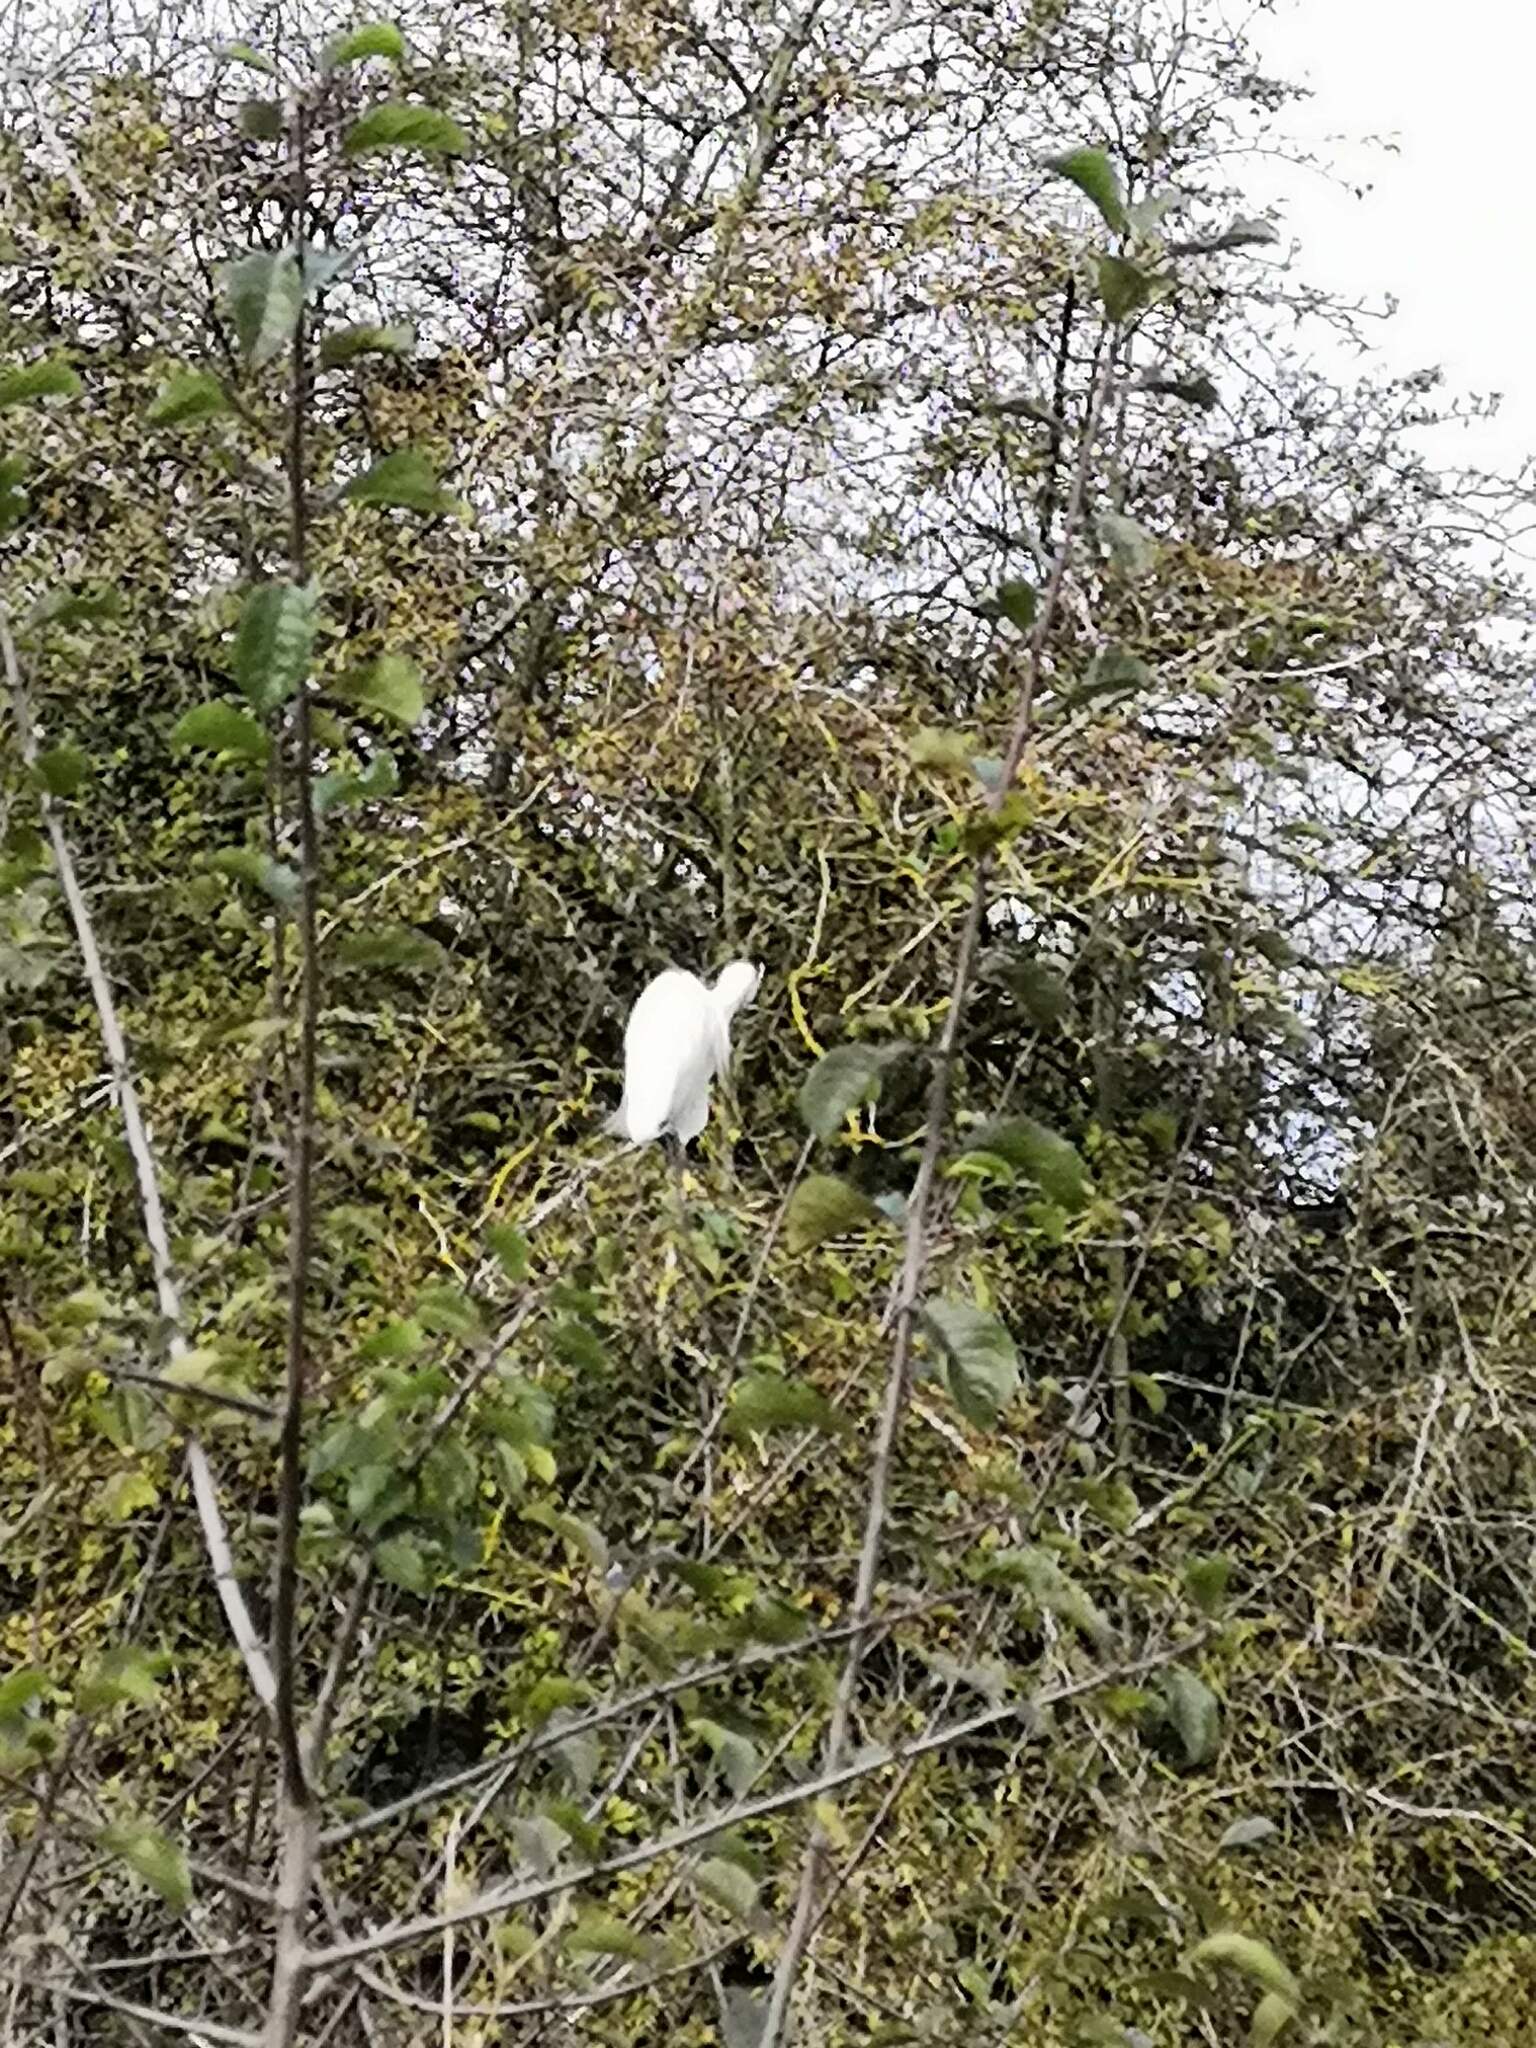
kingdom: Animalia
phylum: Chordata
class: Aves
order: Pelecaniformes
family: Ardeidae
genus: Egretta
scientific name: Egretta garzetta
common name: Little egret
